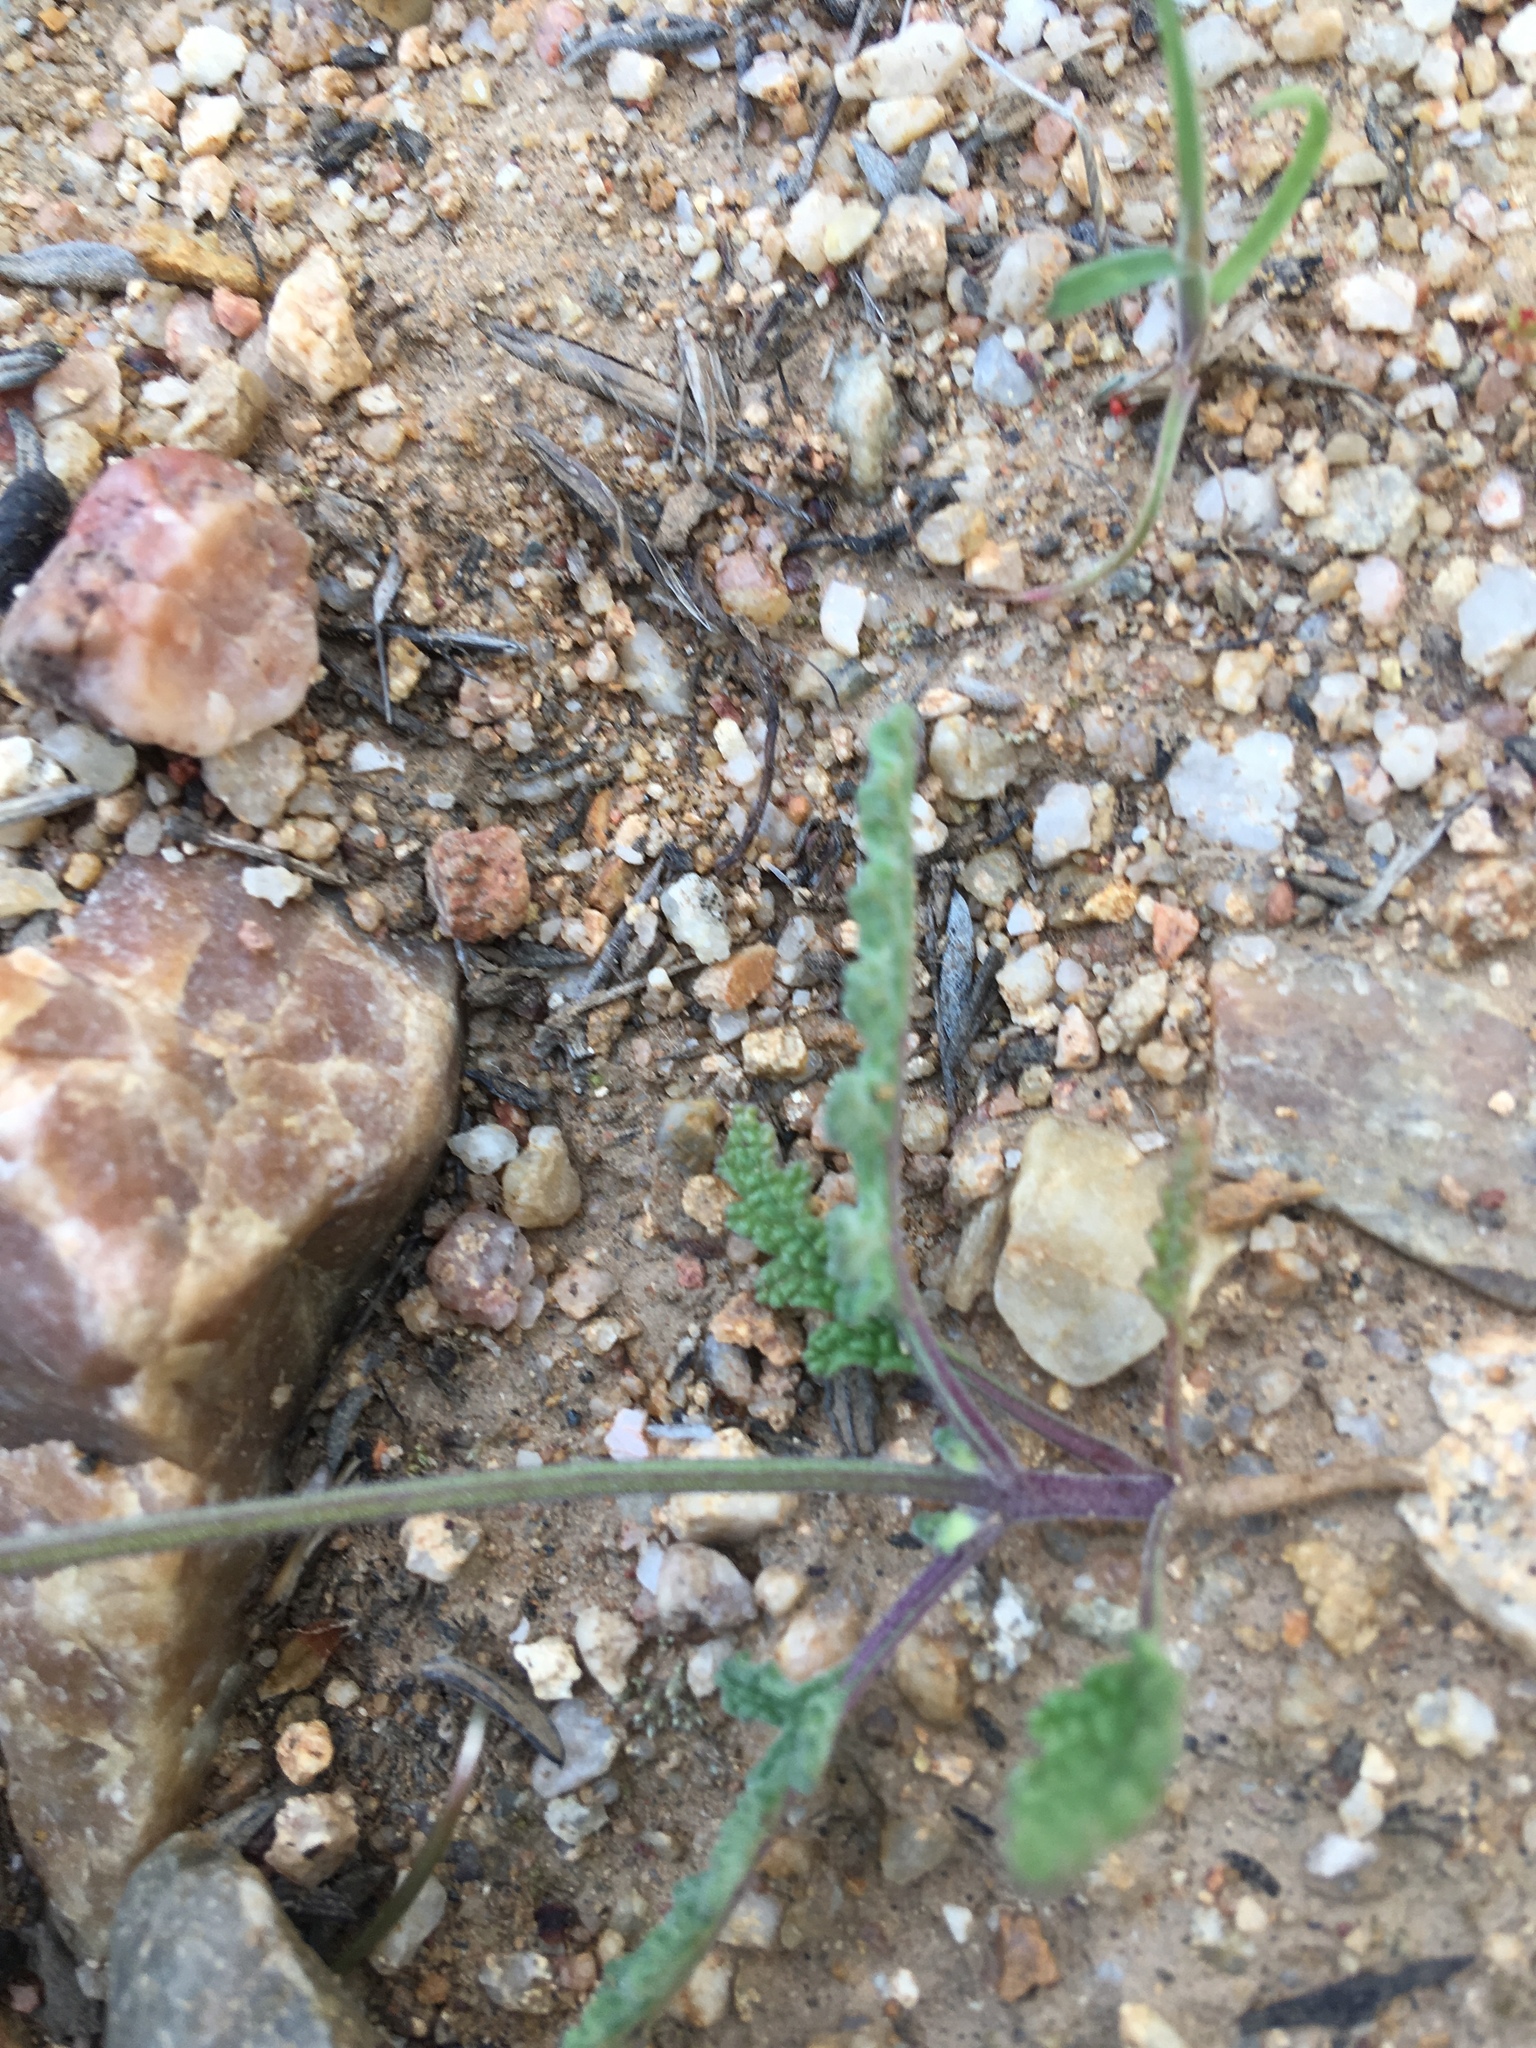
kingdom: Plantae
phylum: Tracheophyta
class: Magnoliopsida
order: Lamiales
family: Lamiaceae
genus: Salvia
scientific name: Salvia columbariae
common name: Chia
